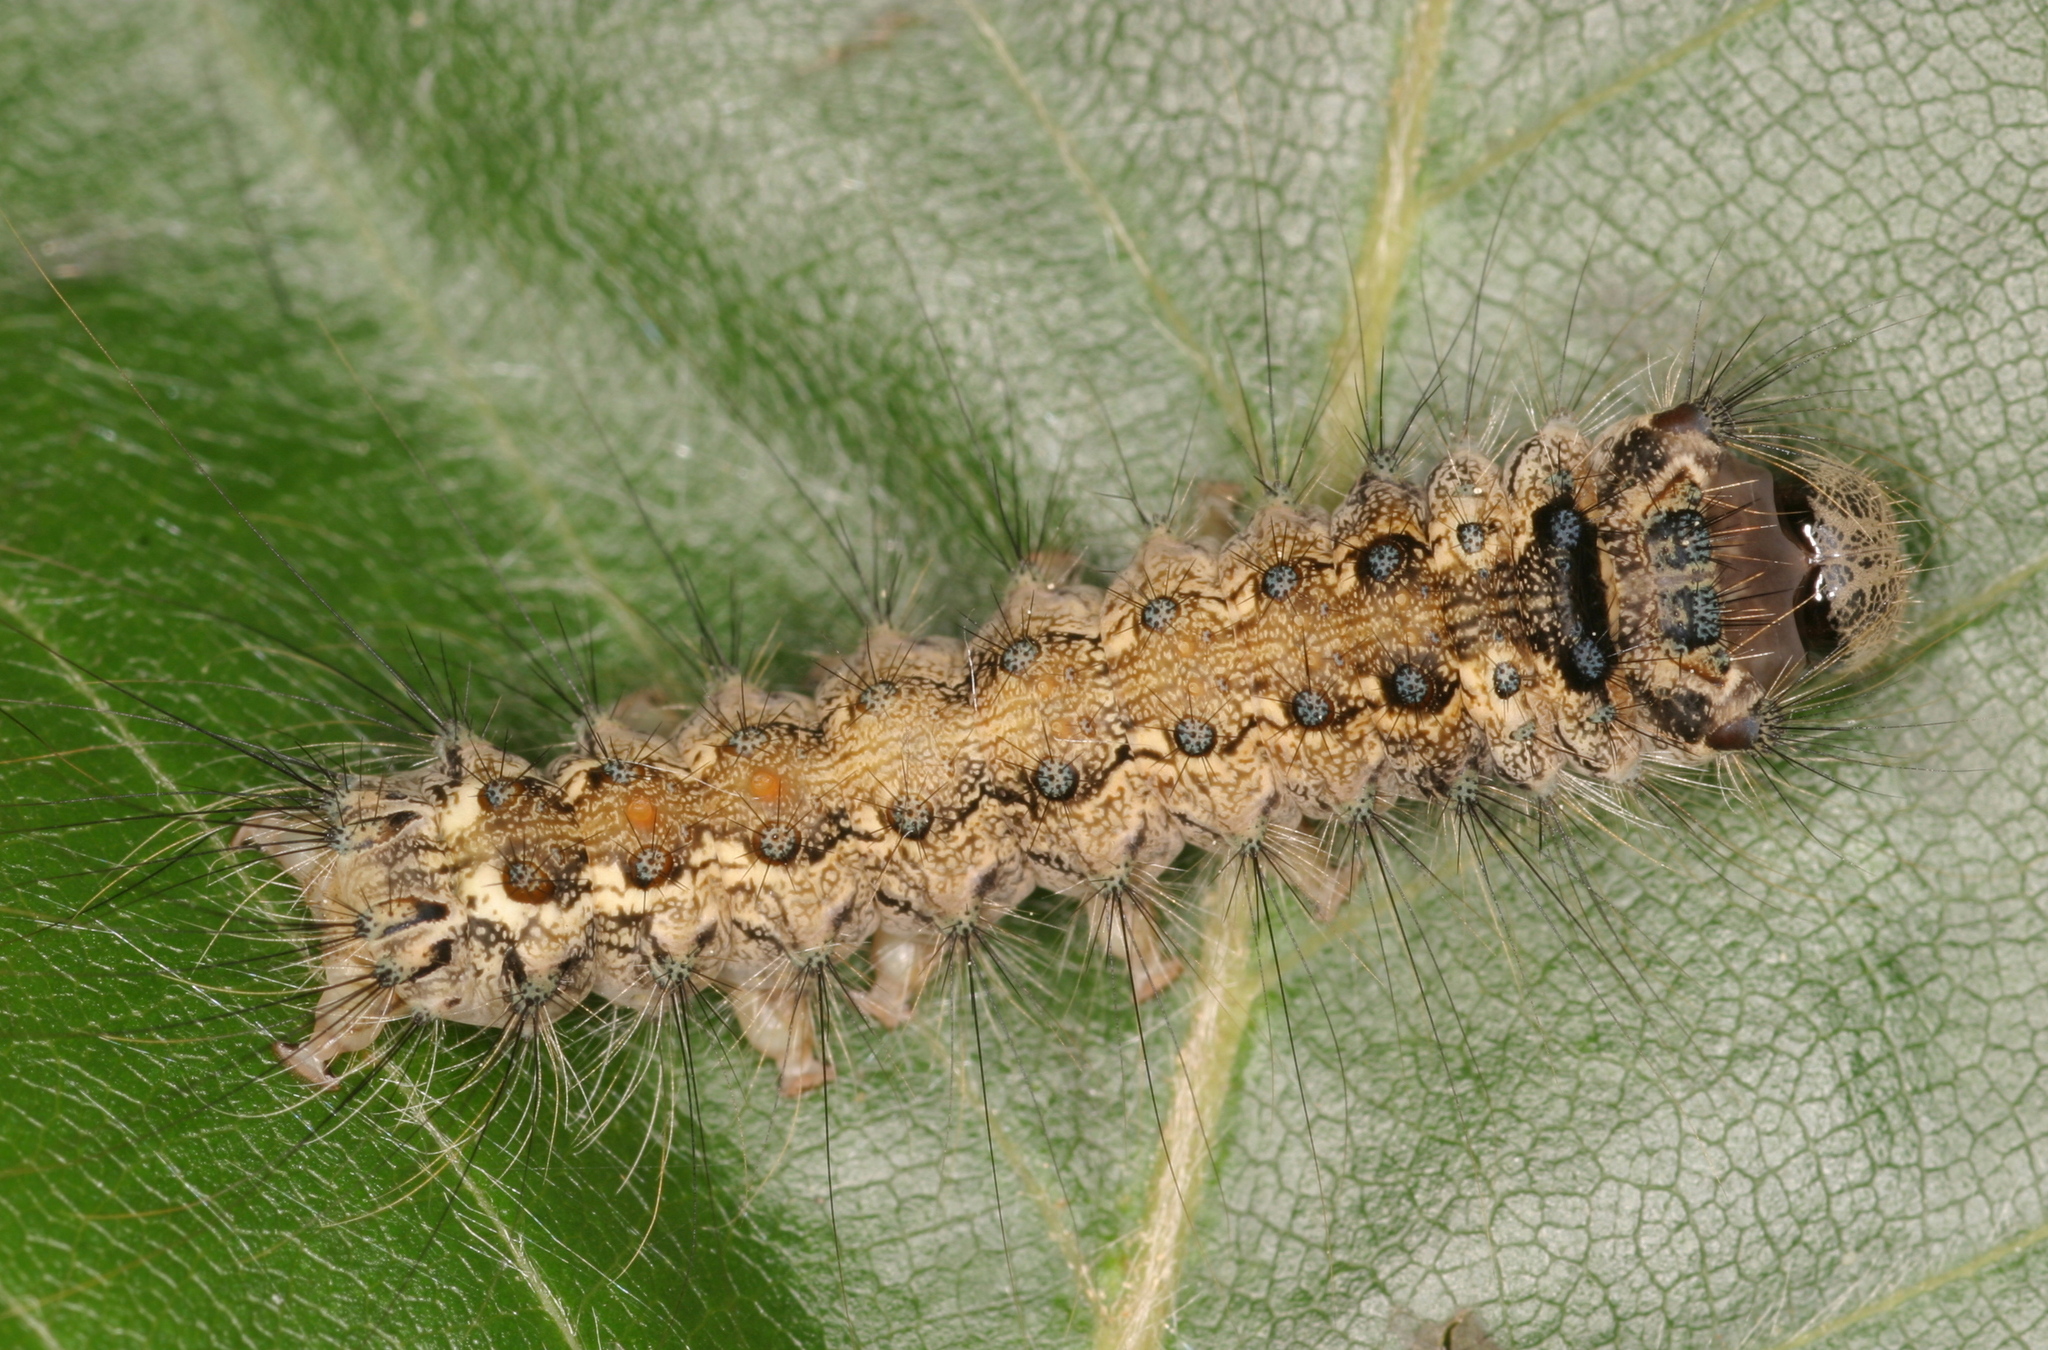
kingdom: Animalia
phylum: Arthropoda
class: Insecta
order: Lepidoptera
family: Erebidae
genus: Lymantria
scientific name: Lymantria monacha
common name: Black arches
